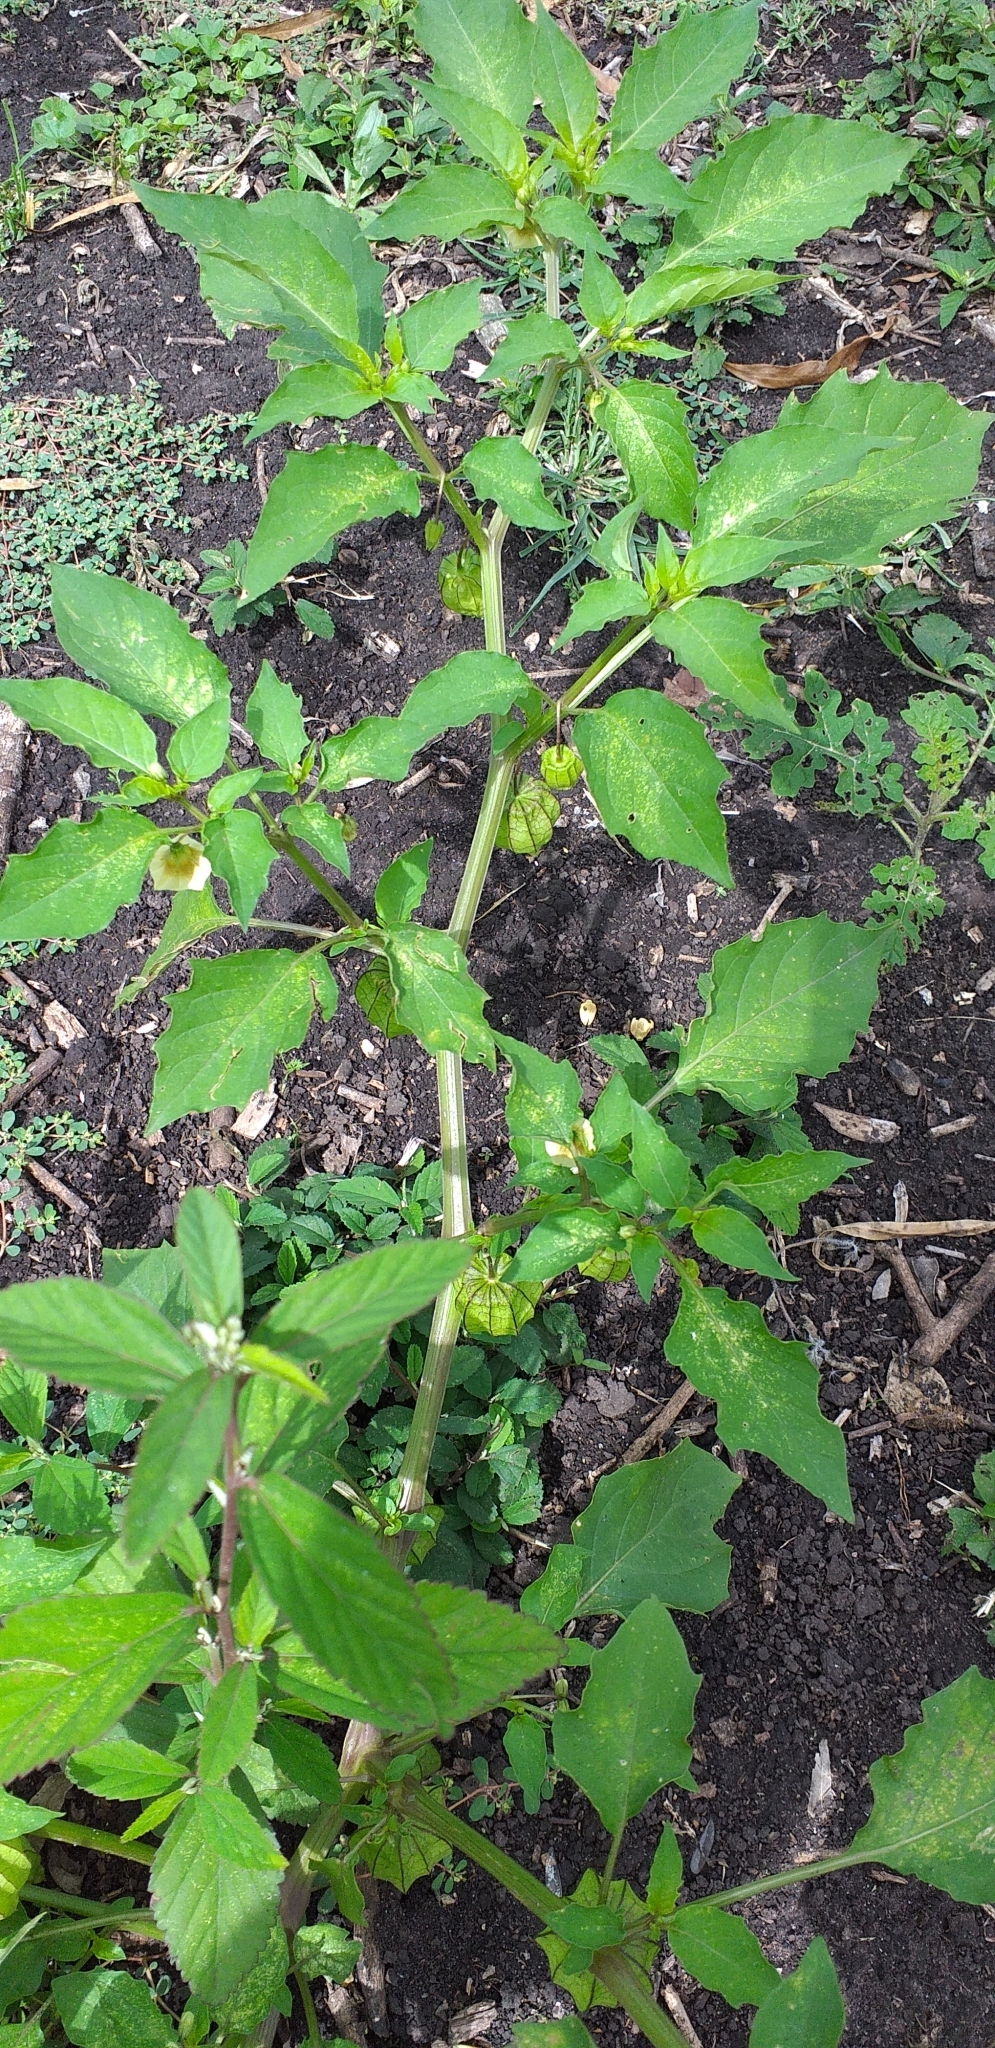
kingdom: Plantae
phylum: Tracheophyta
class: Magnoliopsida
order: Solanales
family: Solanaceae
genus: Physalis
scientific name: Physalis angulata
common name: Angular winter-cherry
